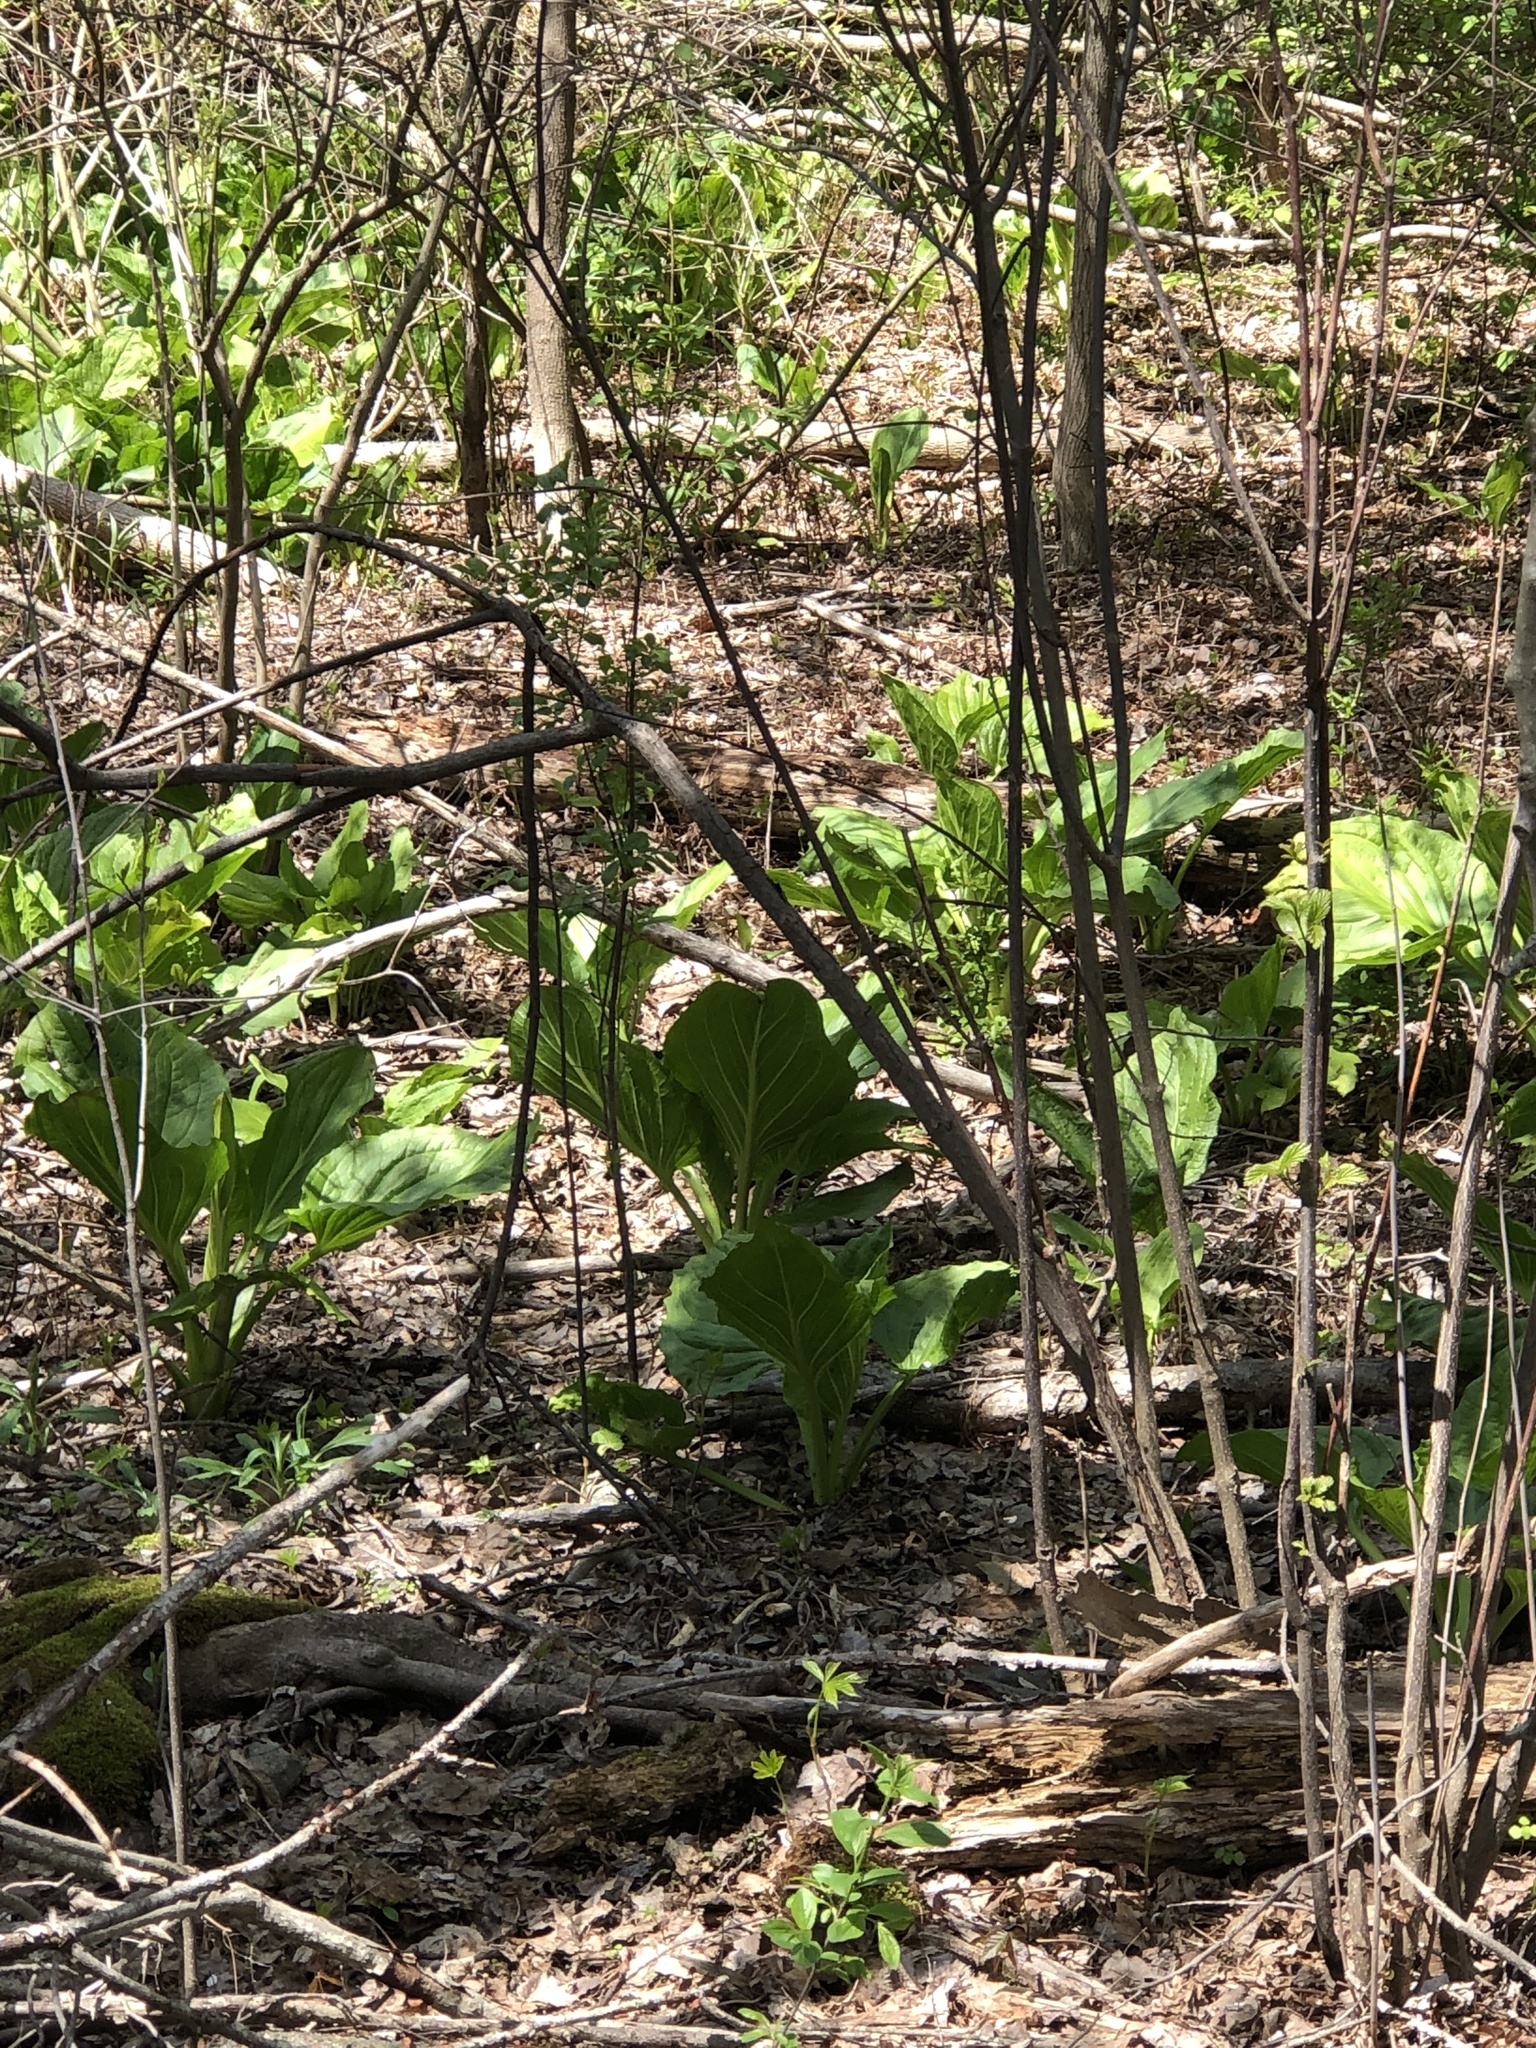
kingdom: Plantae
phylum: Tracheophyta
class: Liliopsida
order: Alismatales
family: Araceae
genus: Symplocarpus
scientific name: Symplocarpus foetidus
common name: Eastern skunk cabbage
